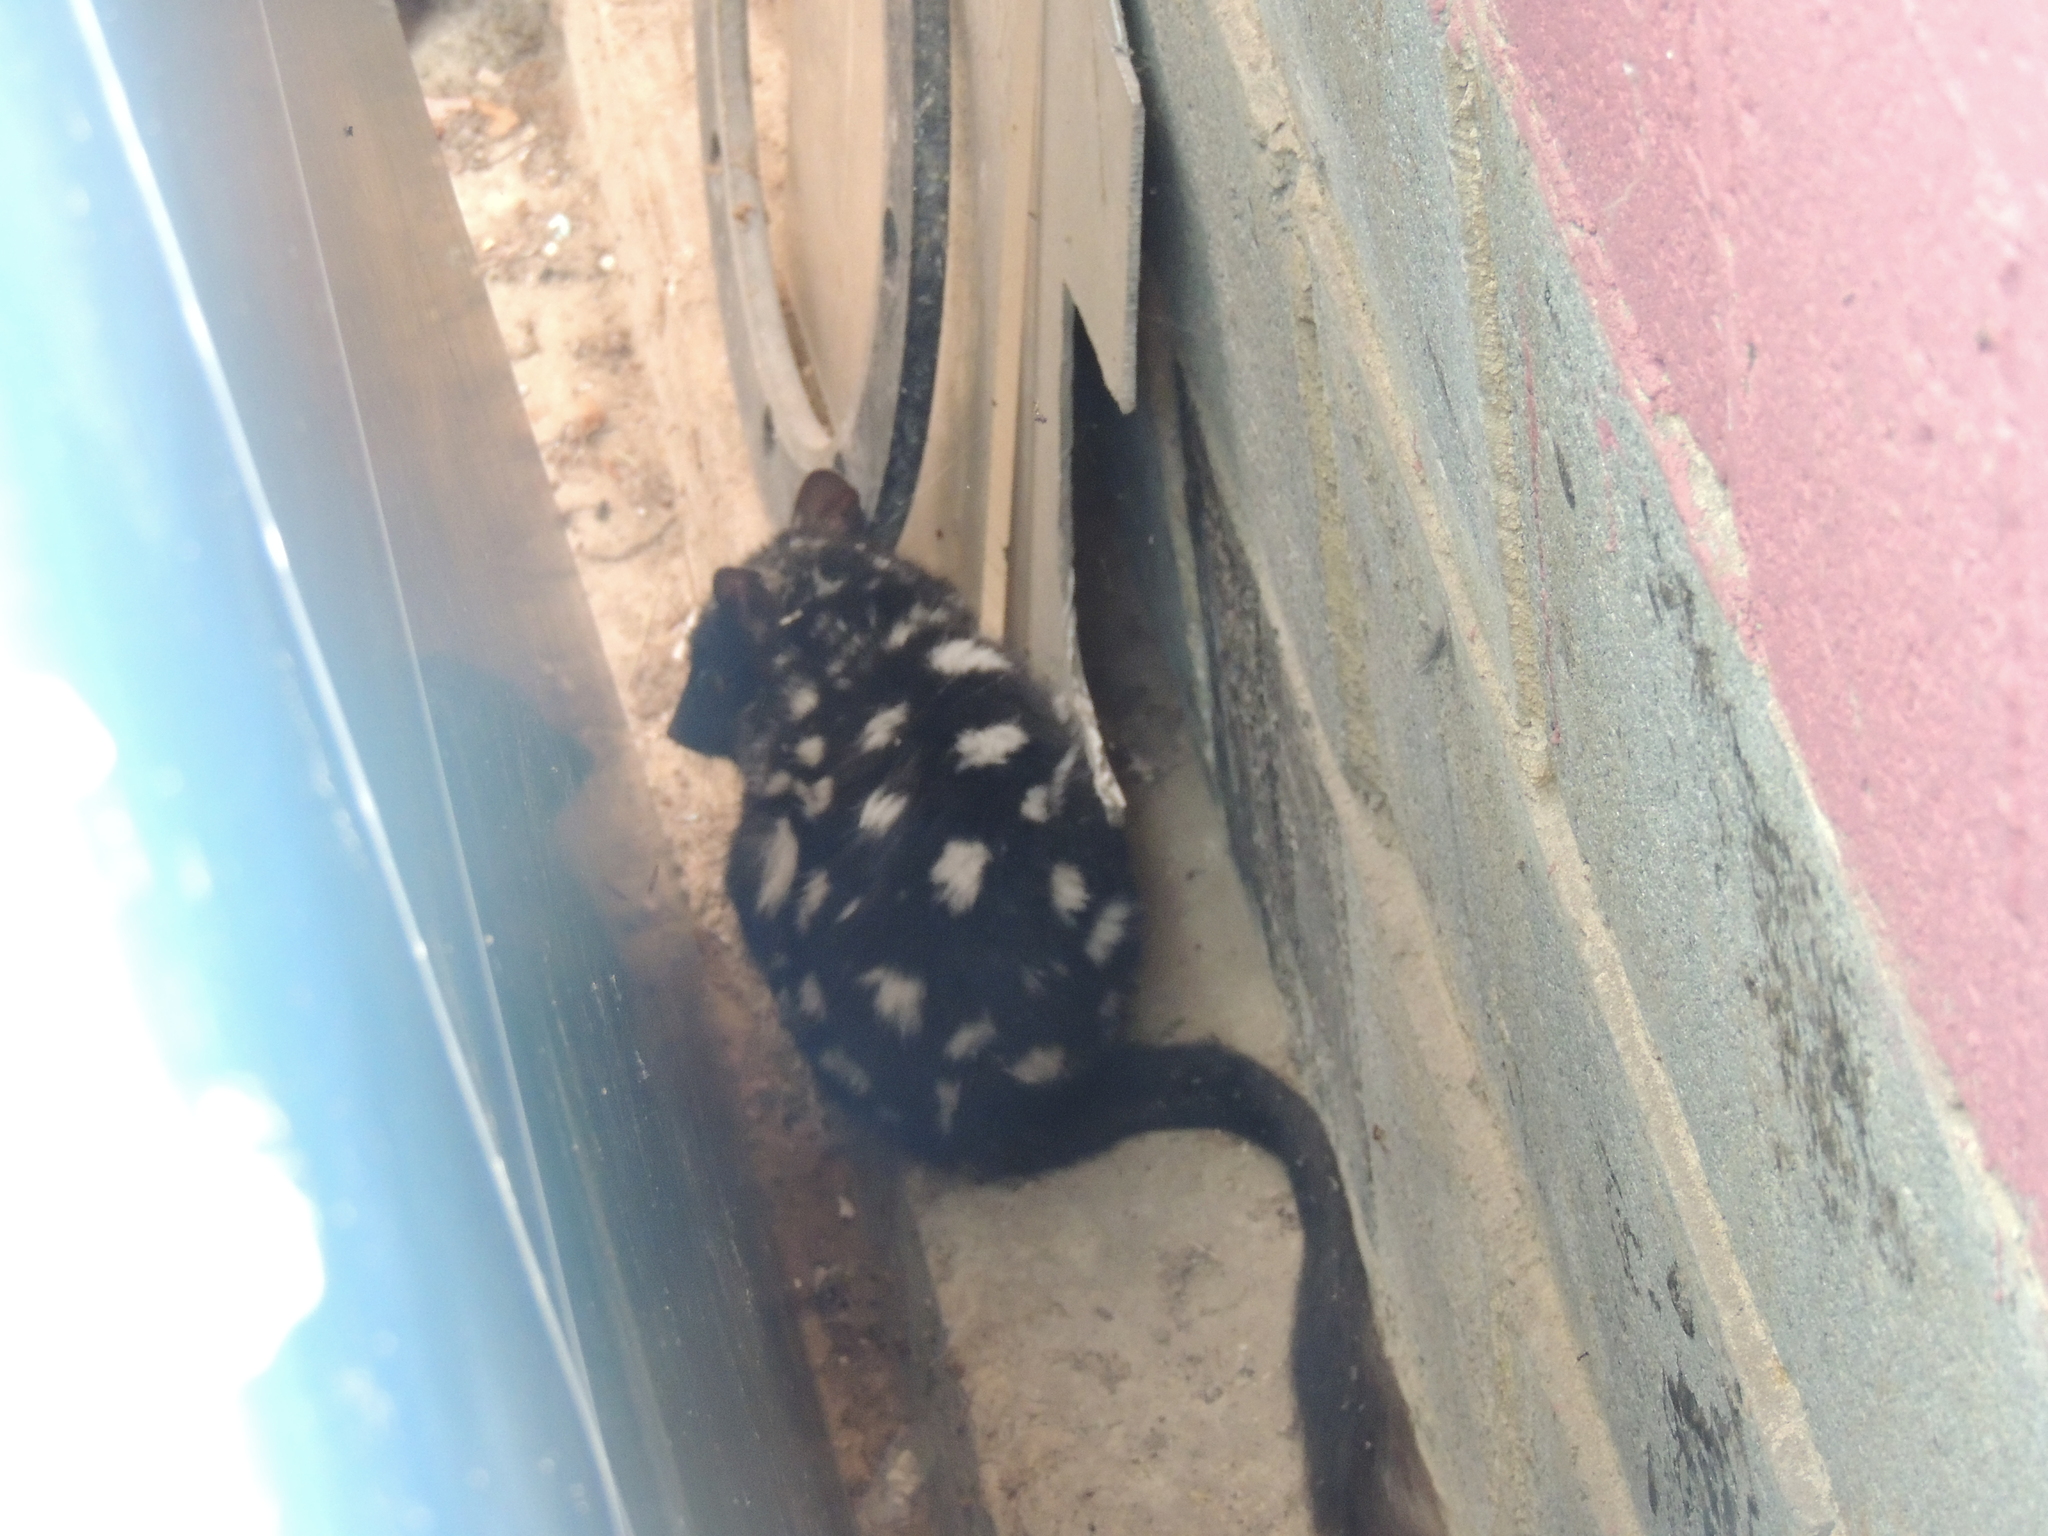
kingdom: Animalia
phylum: Chordata
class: Mammalia
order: Dasyuromorphia
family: Dasyuridae
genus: Dasyurus
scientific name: Dasyurus viverrinus
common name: Eastern quoll
